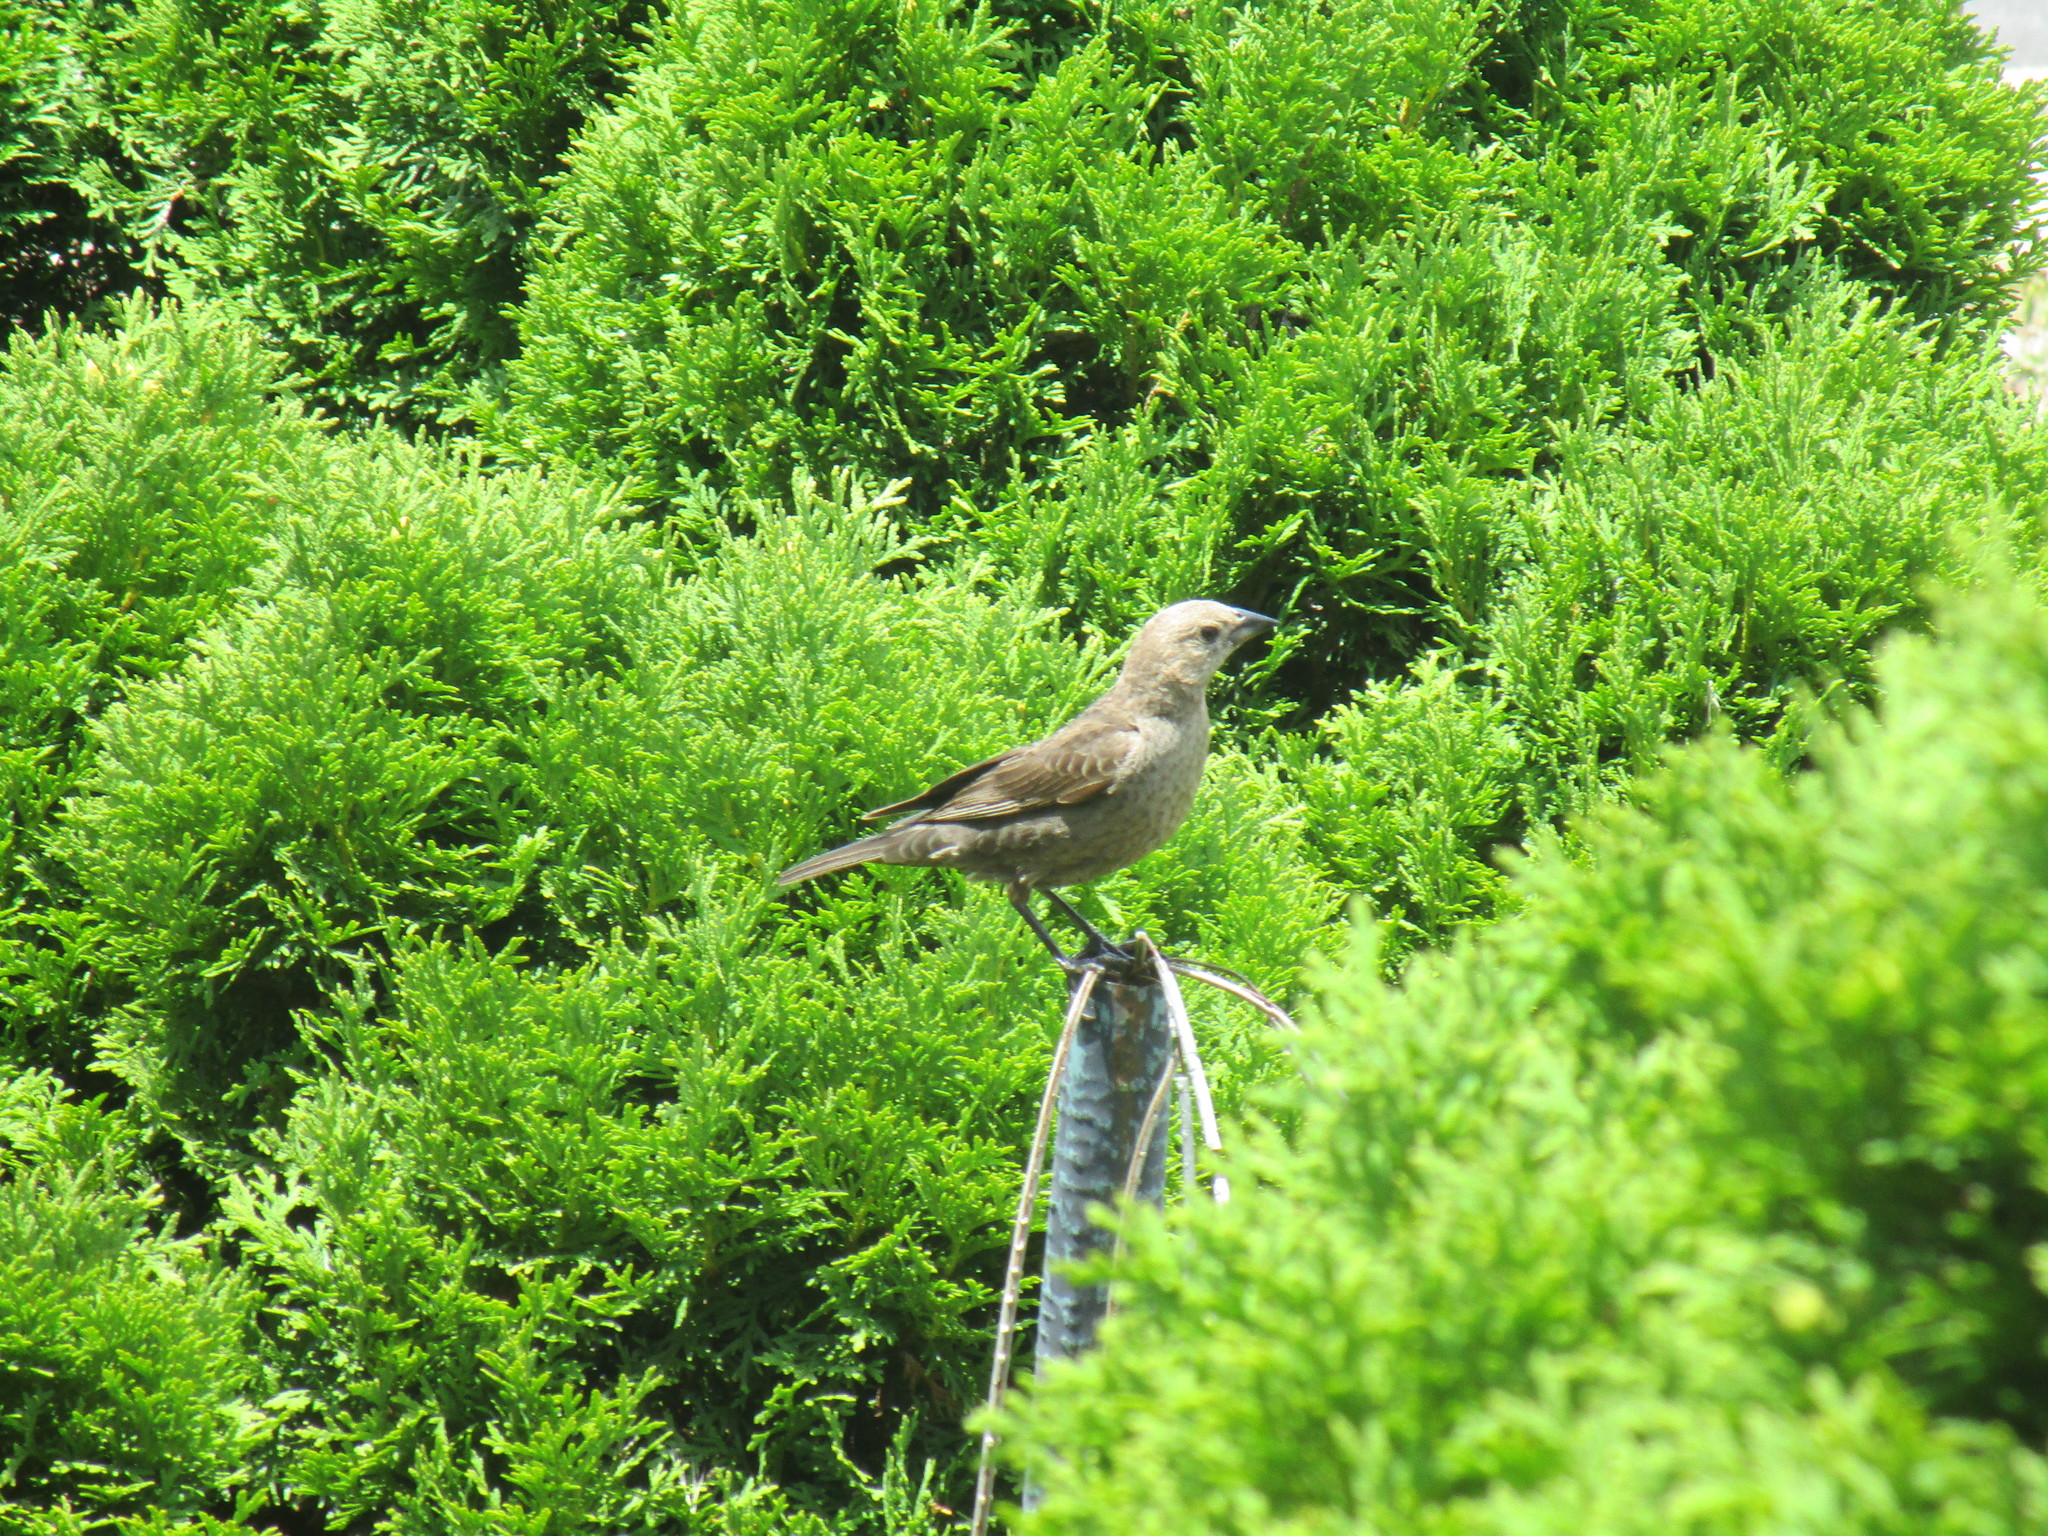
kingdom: Animalia
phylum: Chordata
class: Aves
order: Passeriformes
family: Icteridae
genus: Molothrus
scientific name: Molothrus ater
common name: Brown-headed cowbird
